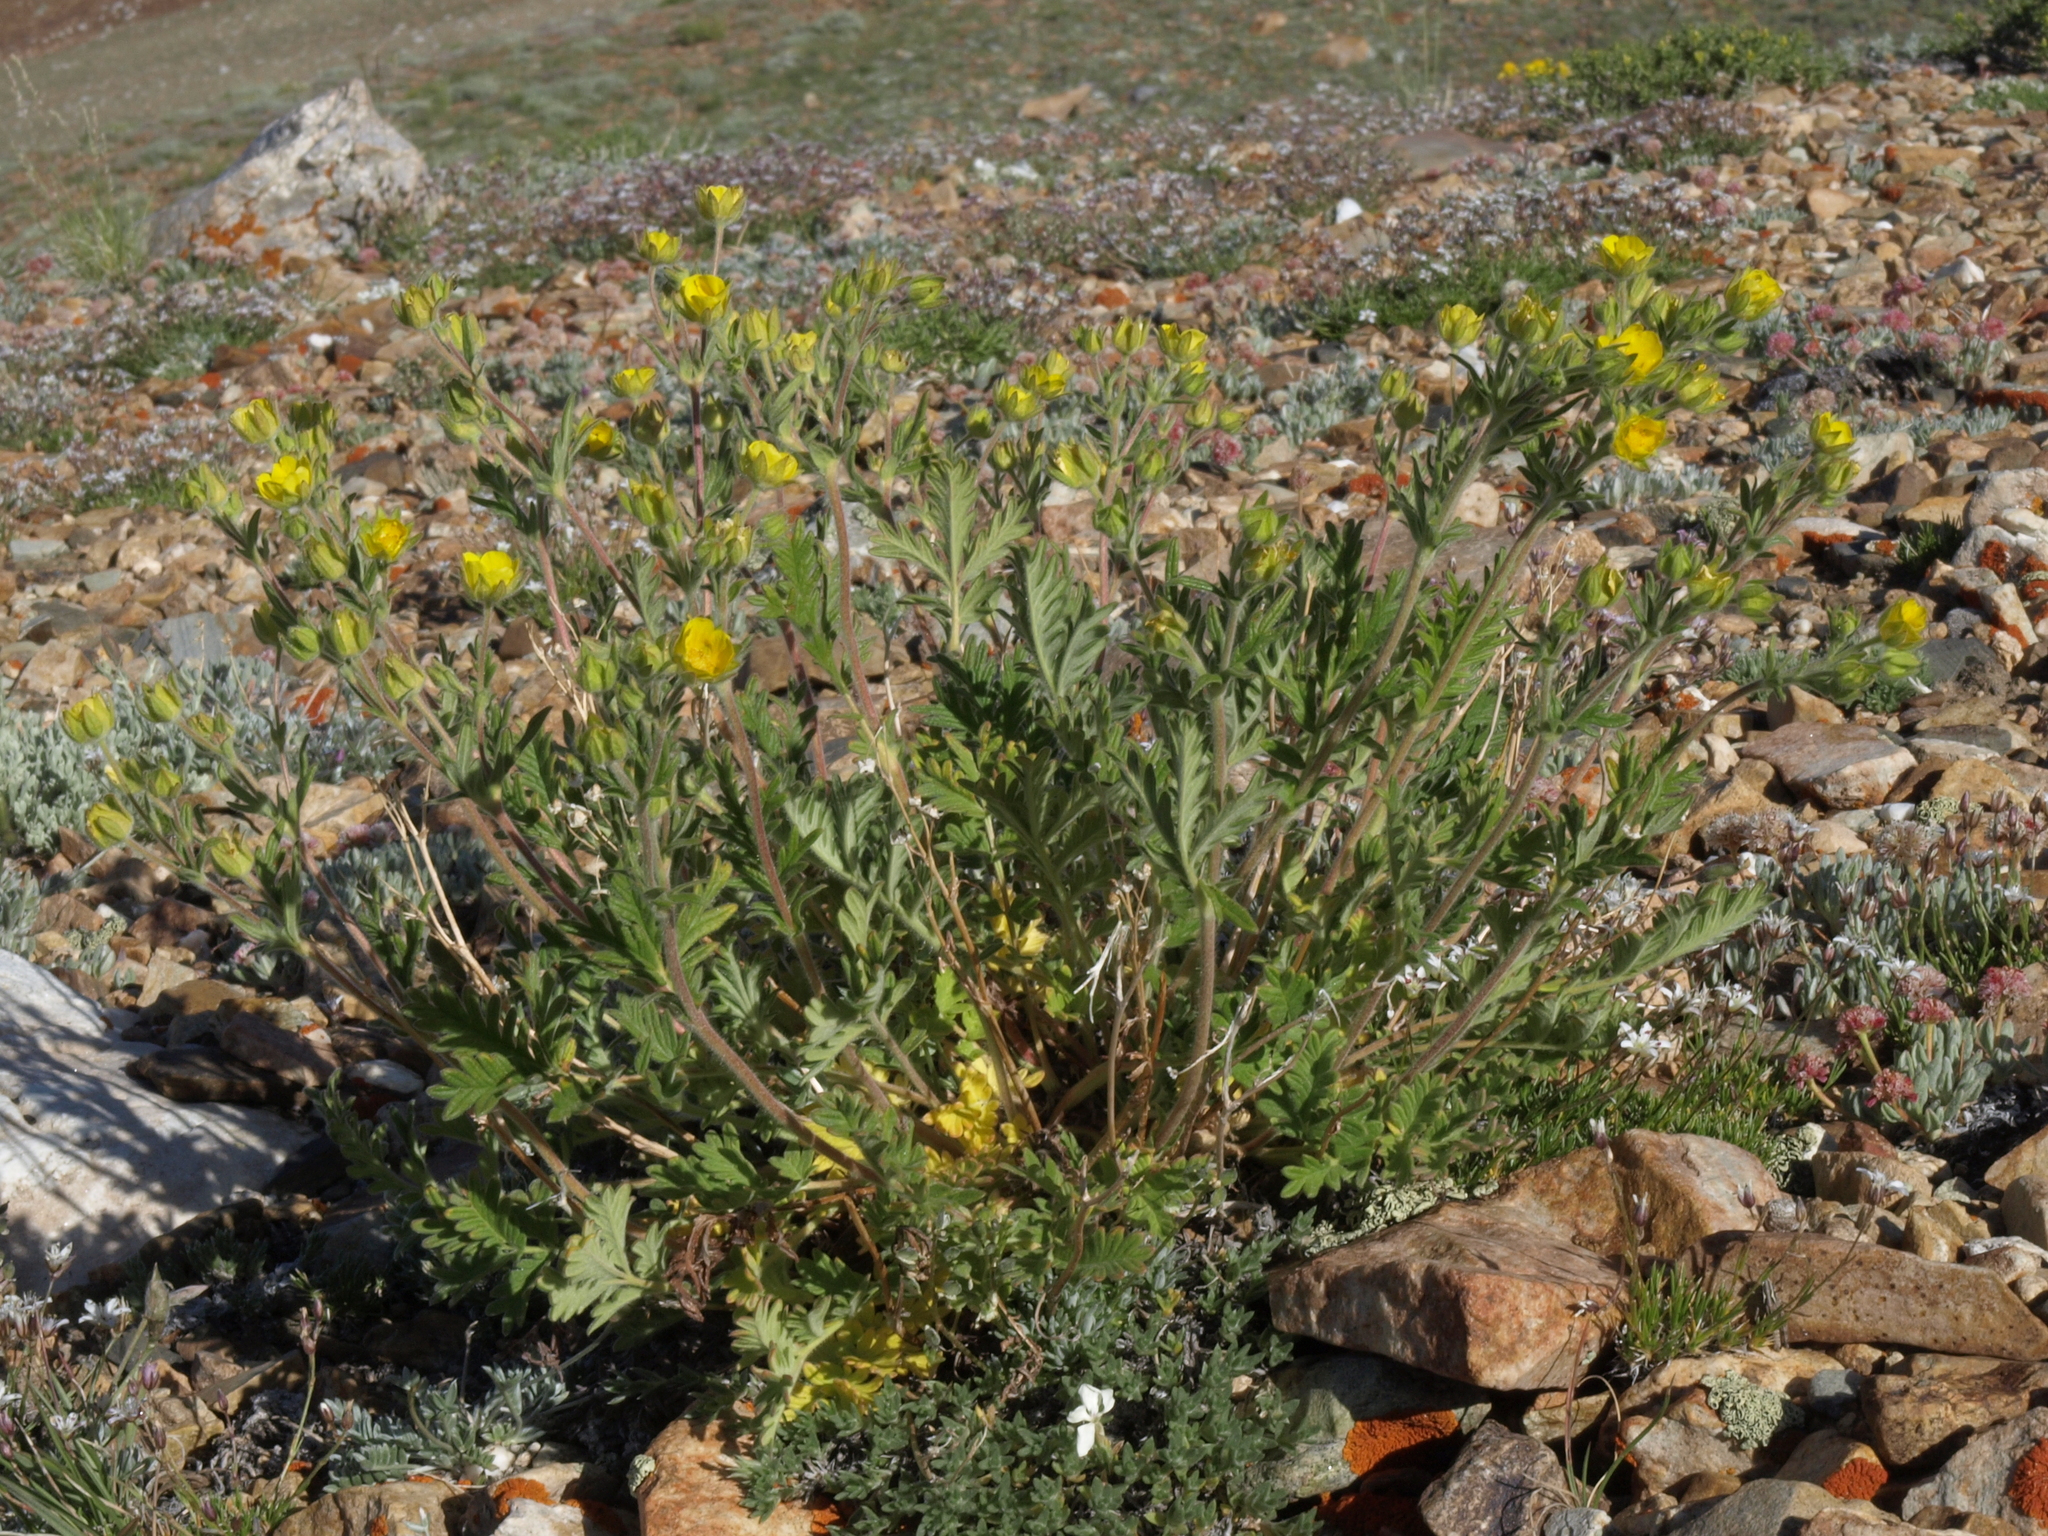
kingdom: Plantae
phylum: Tracheophyta
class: Magnoliopsida
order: Rosales
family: Rosaceae
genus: Potentilla
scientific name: Potentilla pensylvanica
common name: Pennsylvania cinquefoil
